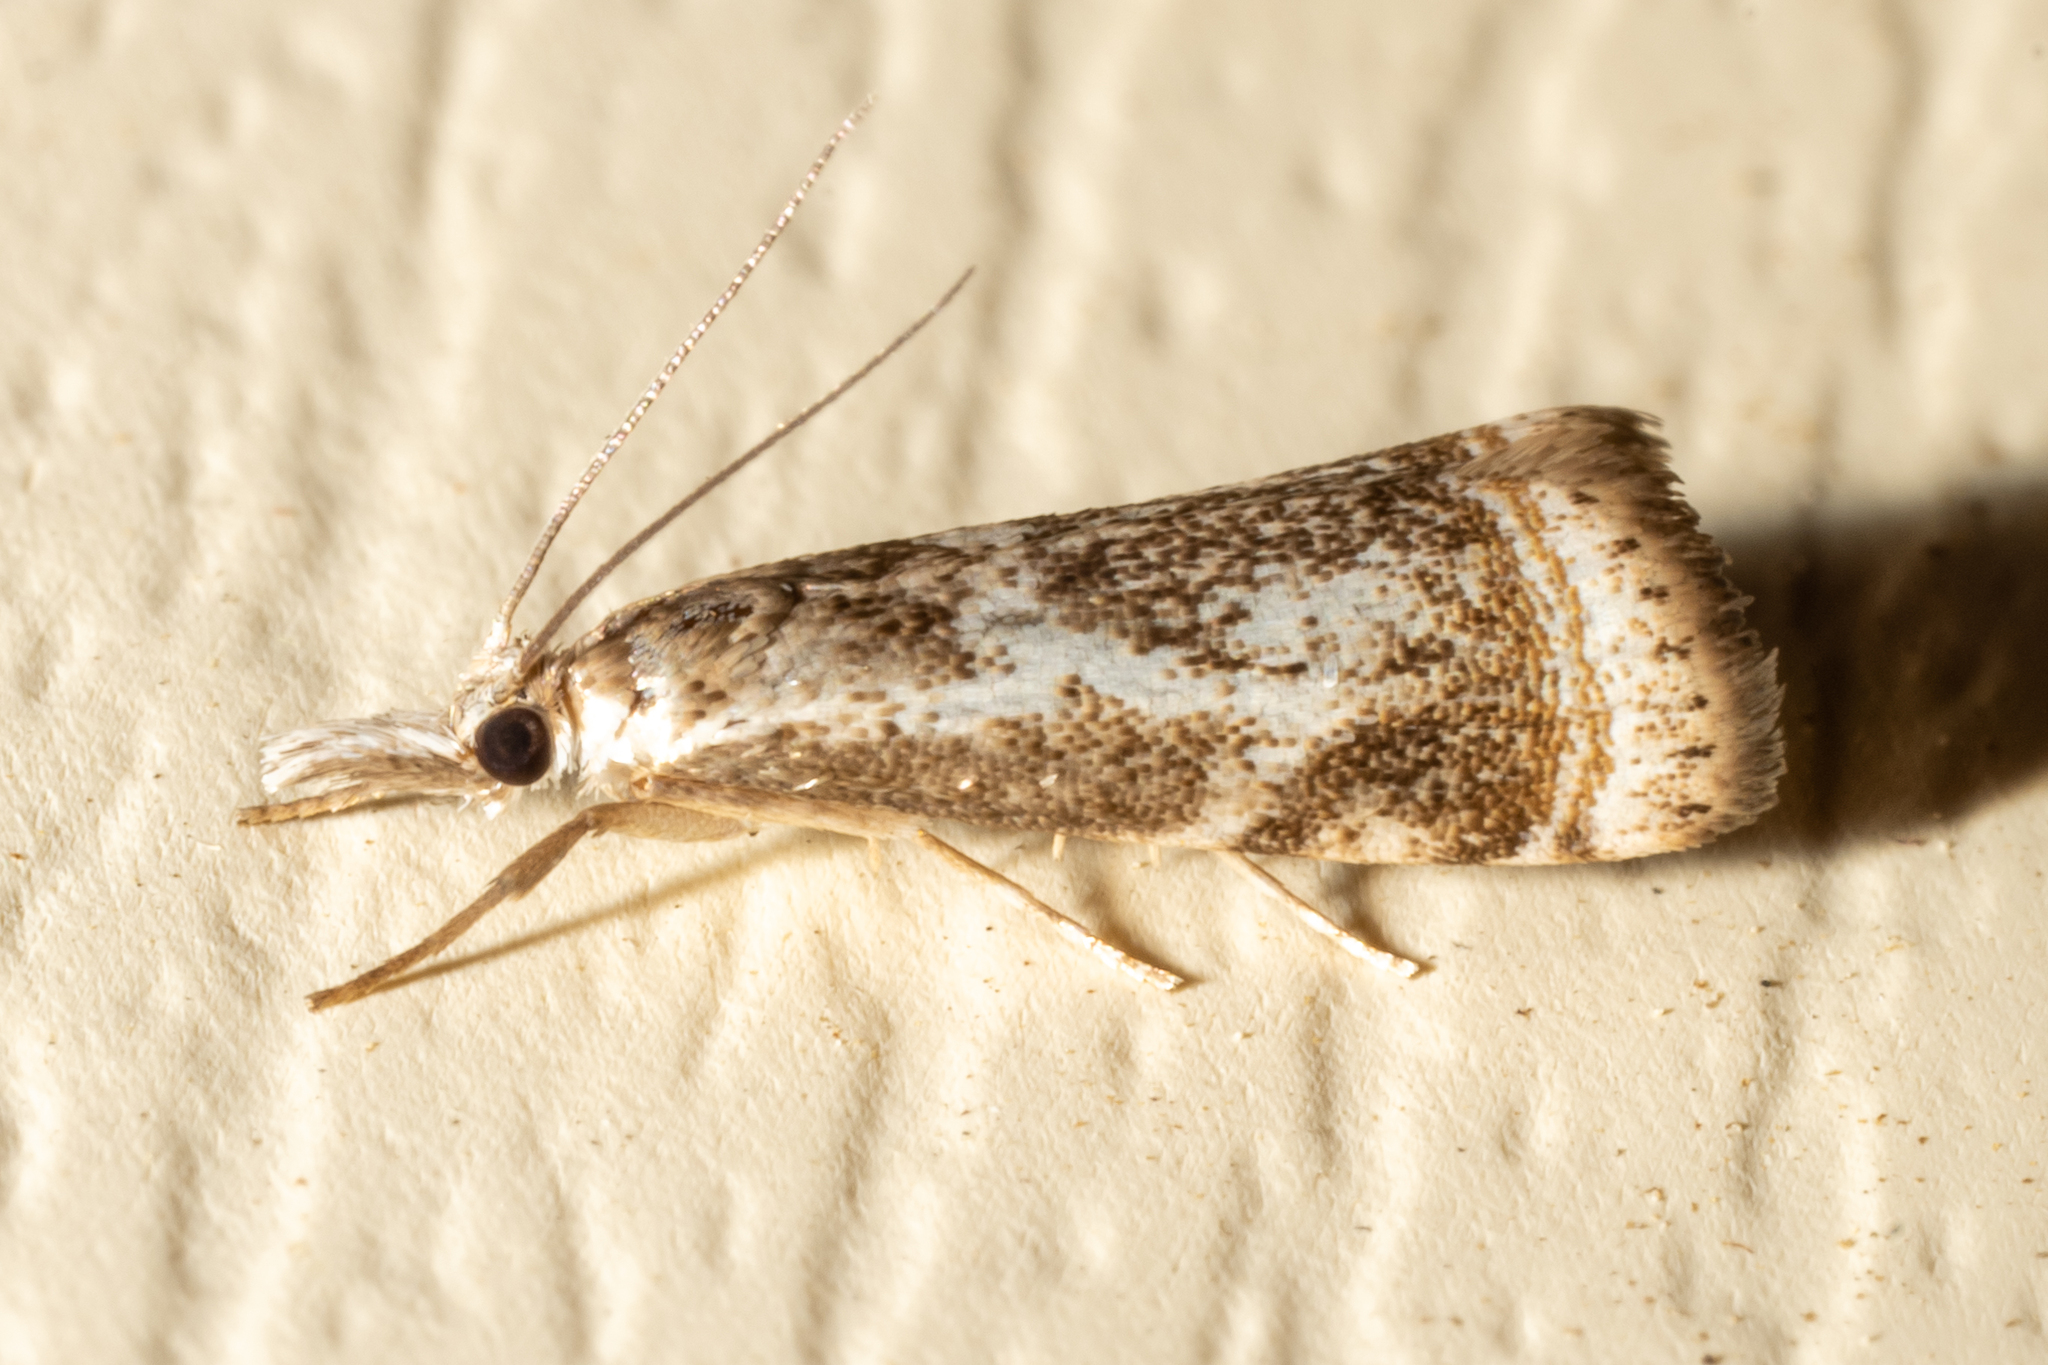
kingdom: Animalia
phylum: Arthropoda
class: Insecta
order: Lepidoptera
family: Crambidae
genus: Microcrambus
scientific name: Microcrambus elegans
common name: Elegant grass-veneer
